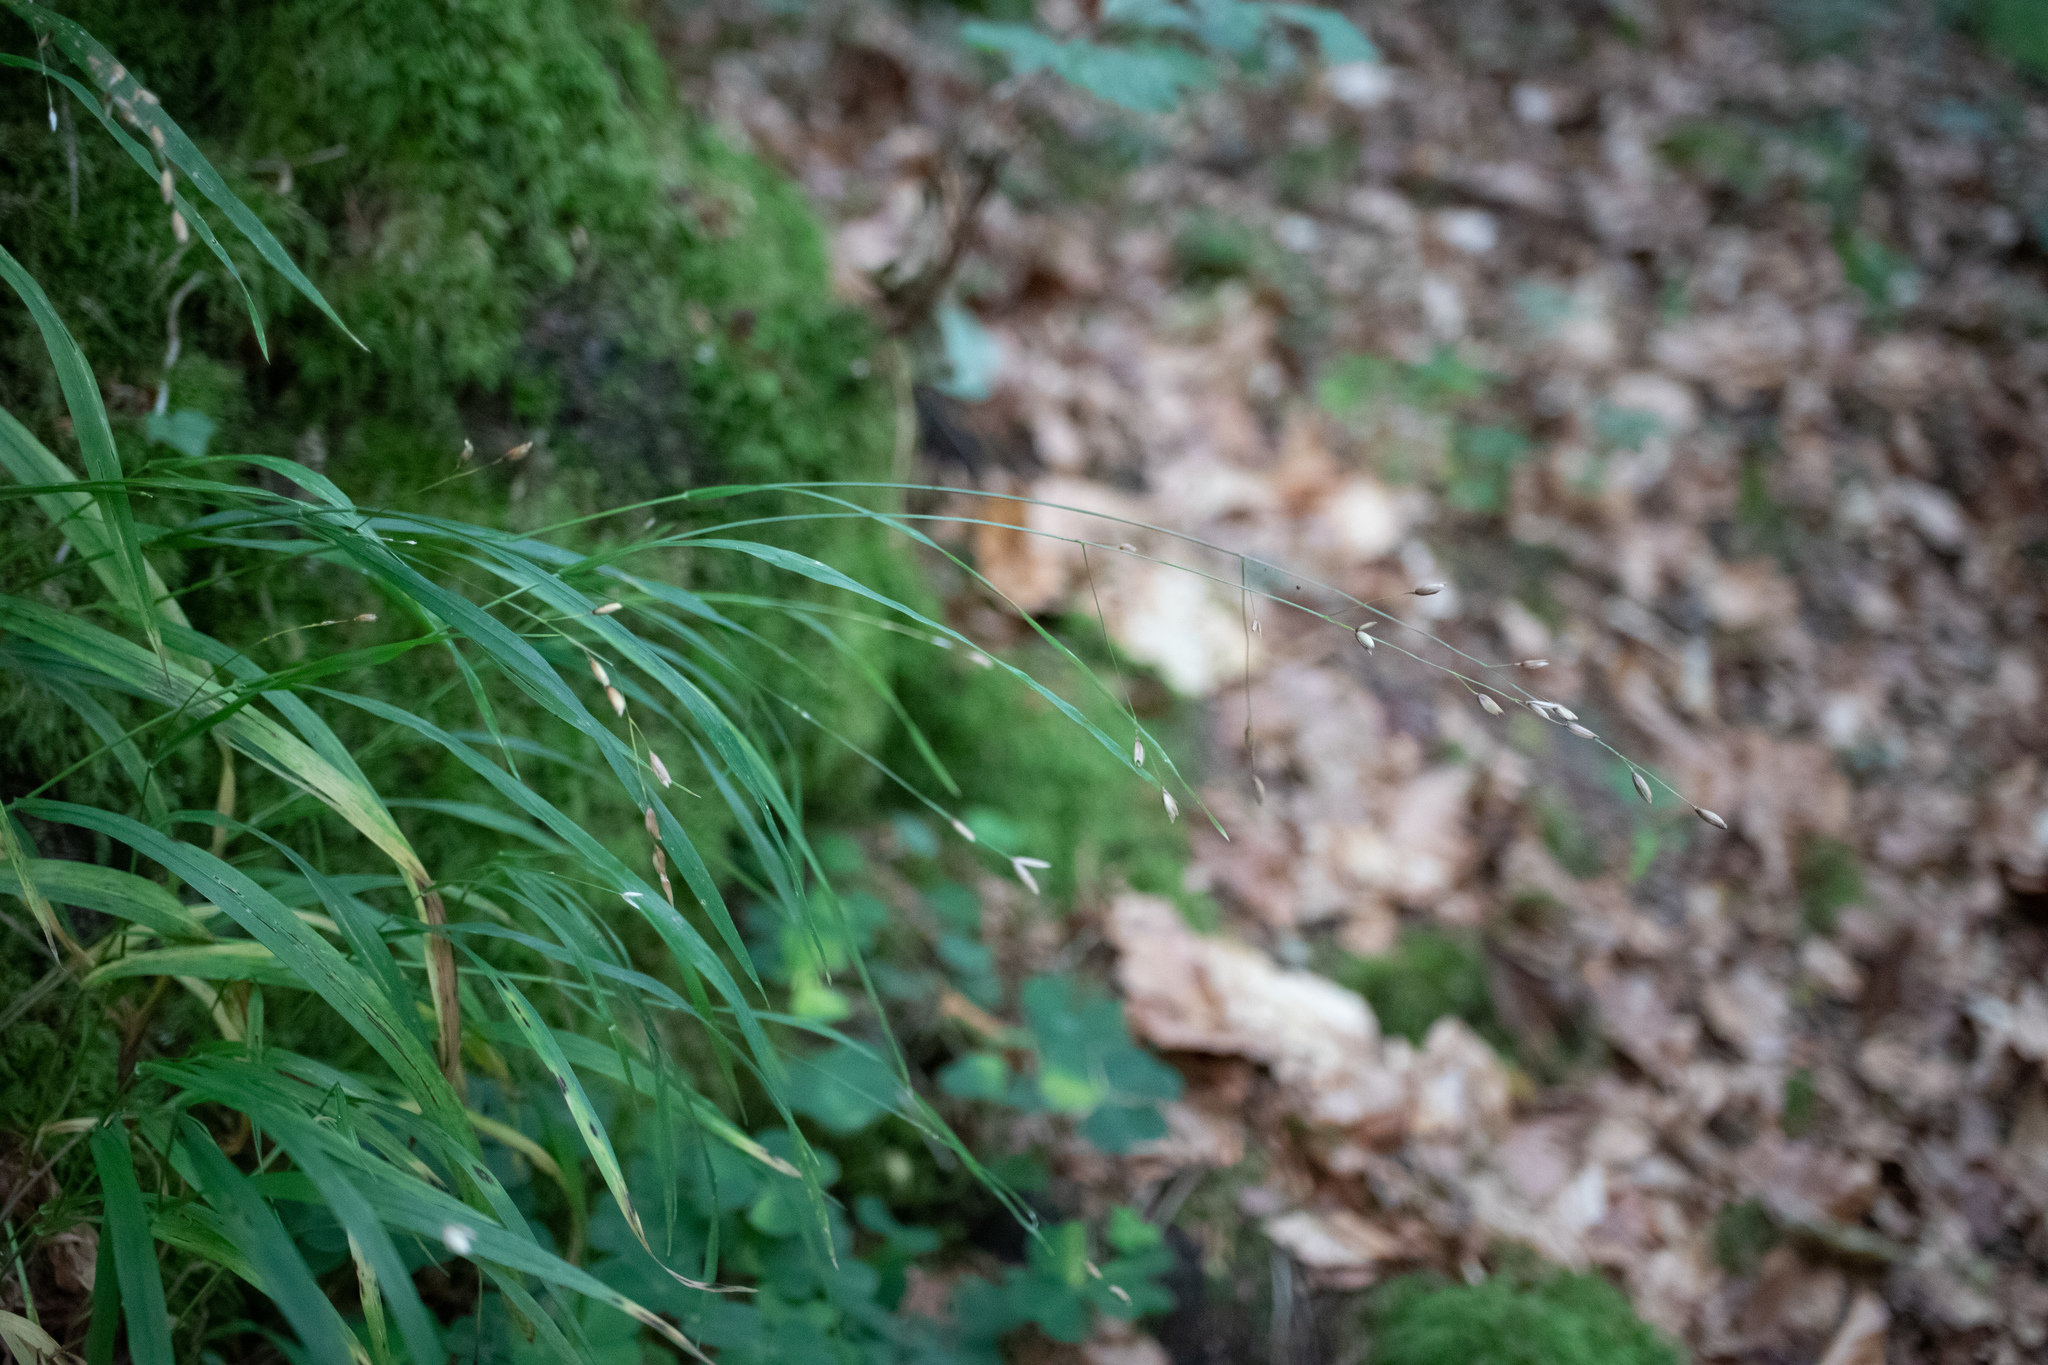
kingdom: Plantae
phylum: Tracheophyta
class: Liliopsida
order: Poales
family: Poaceae
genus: Melica
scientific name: Melica uniflora
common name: Wood melick
